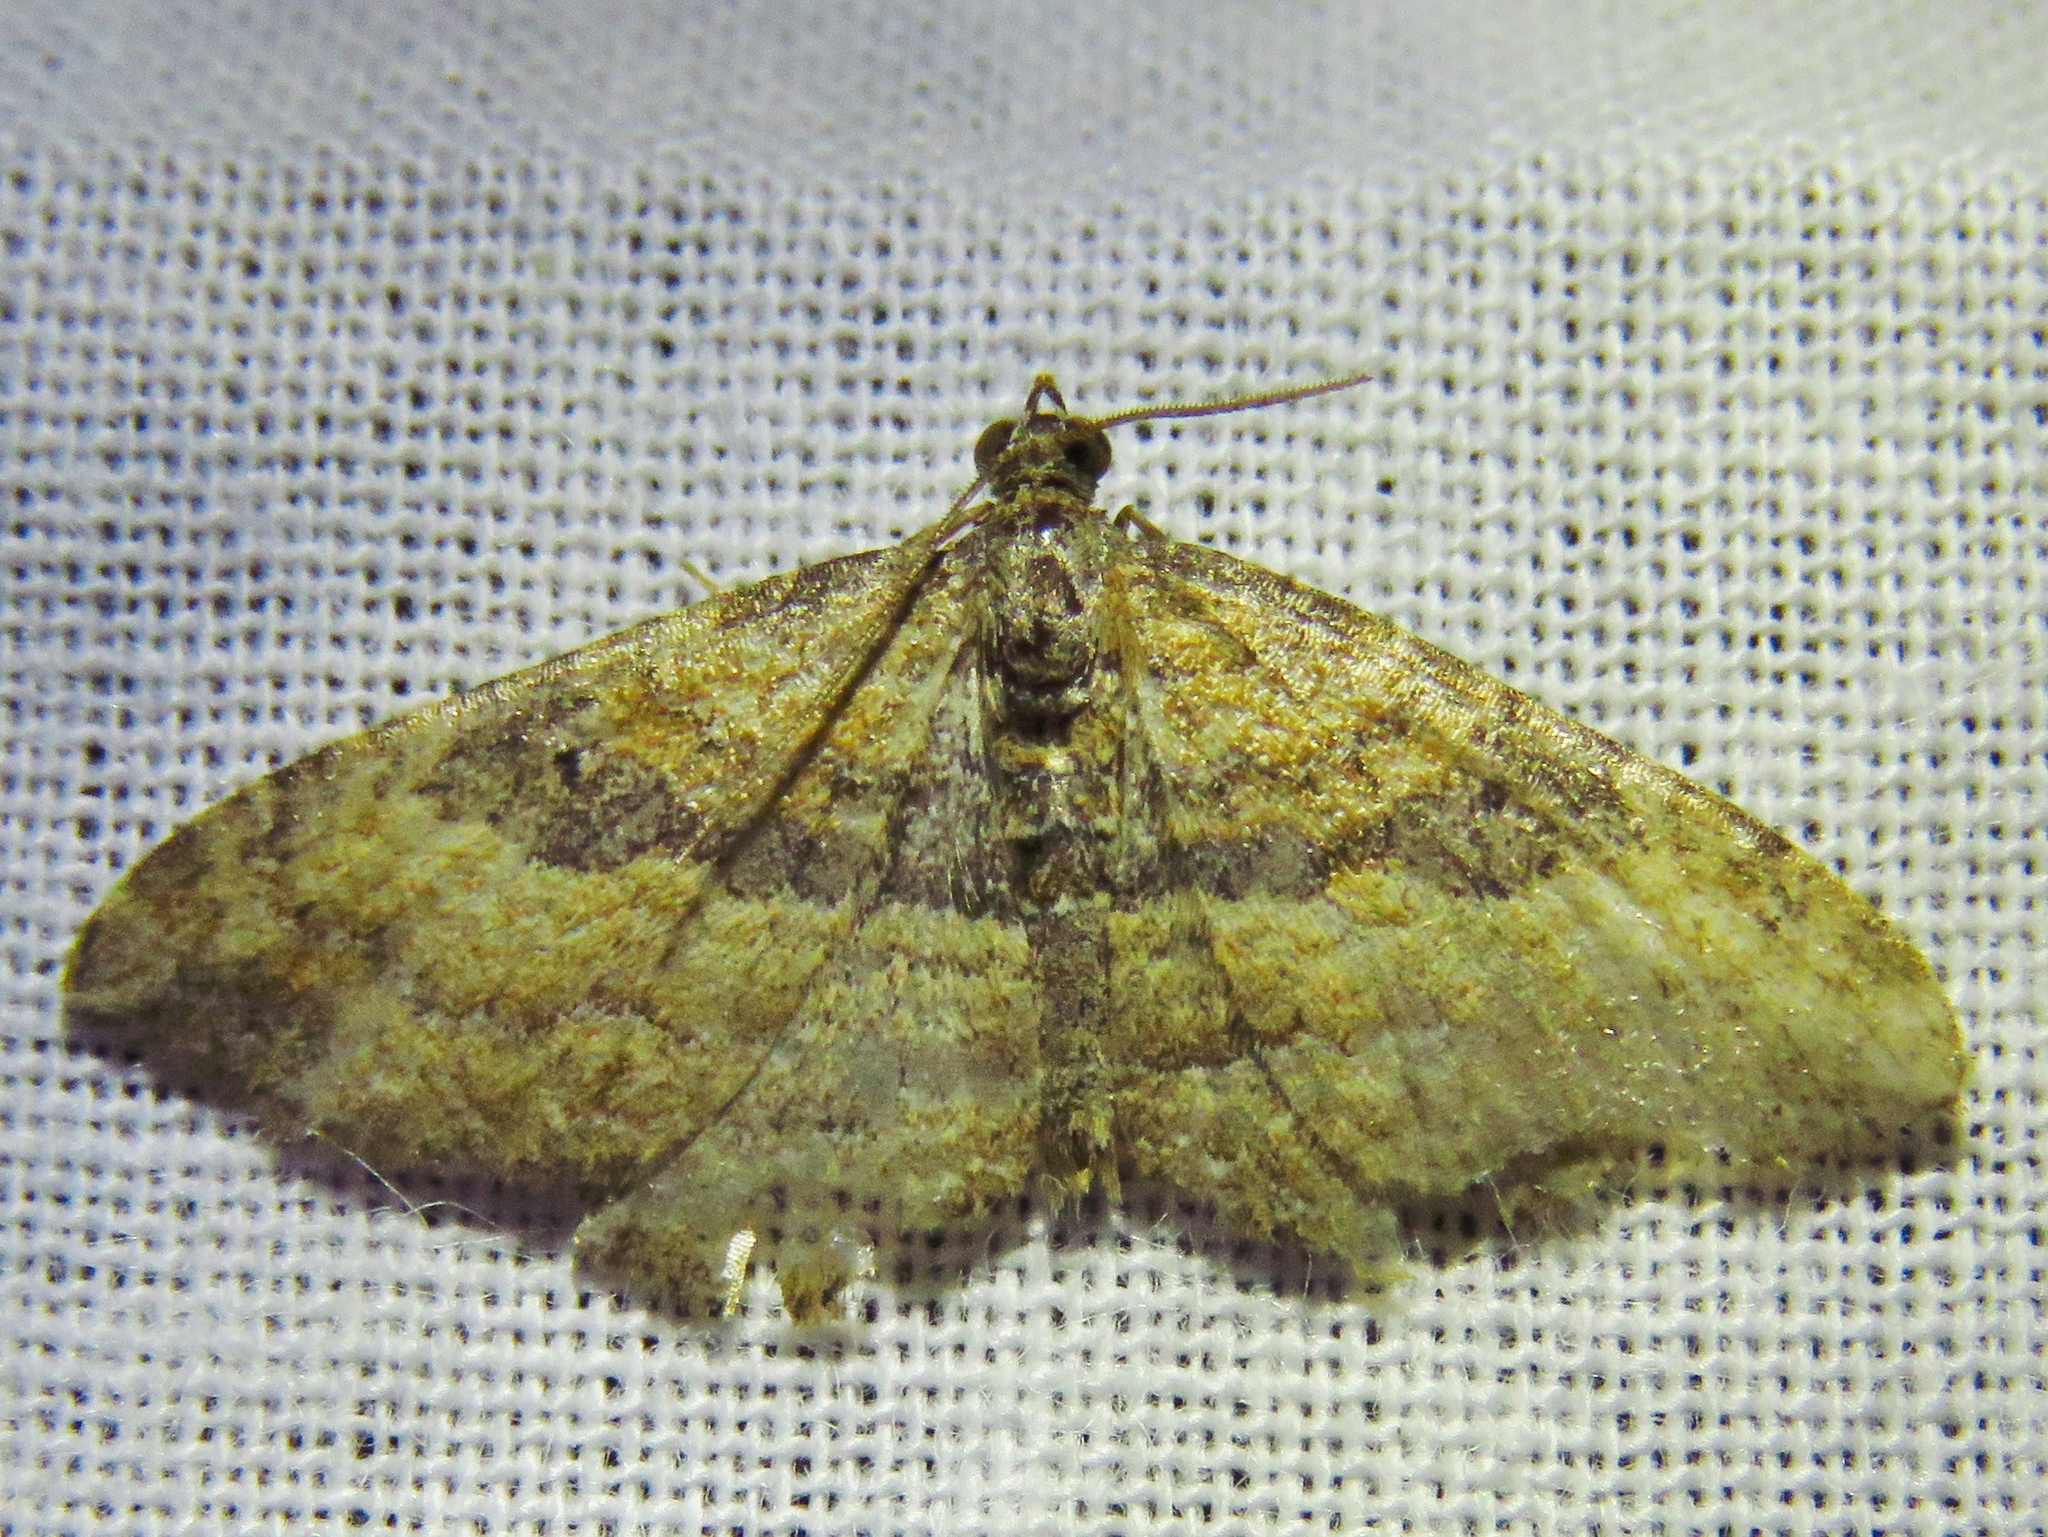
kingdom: Animalia
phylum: Arthropoda
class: Insecta
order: Lepidoptera
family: Geometridae
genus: Orthonama
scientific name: Orthonama obstipata
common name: The gem
